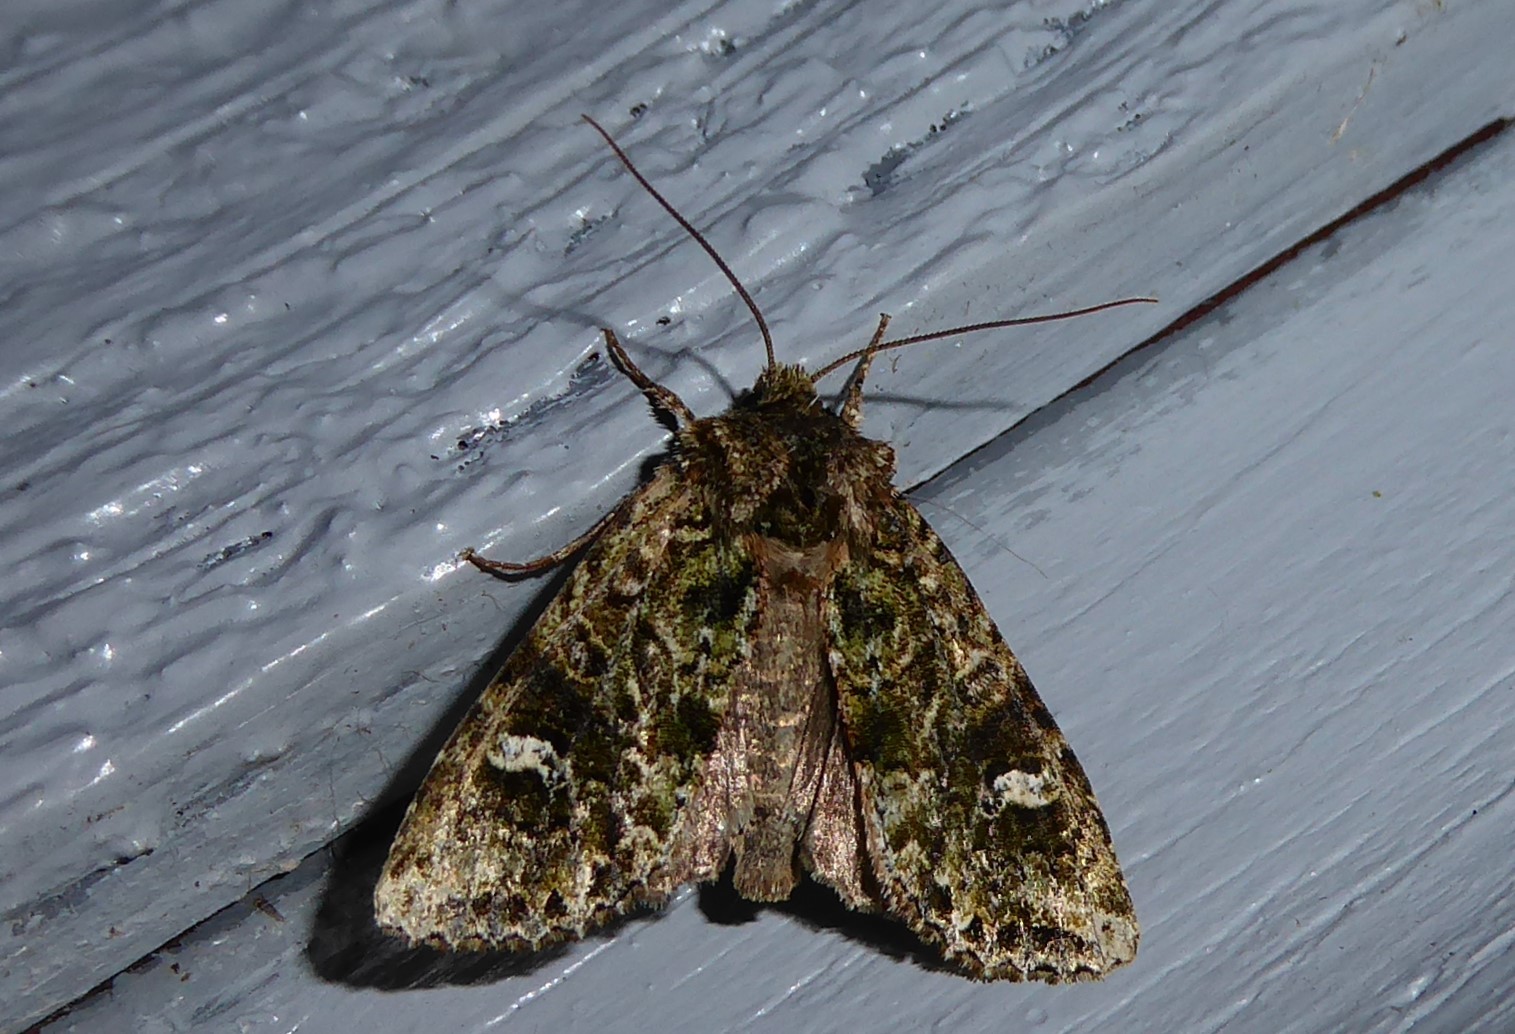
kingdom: Animalia
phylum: Arthropoda
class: Insecta
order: Lepidoptera
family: Noctuidae
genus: Ichneutica
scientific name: Ichneutica
